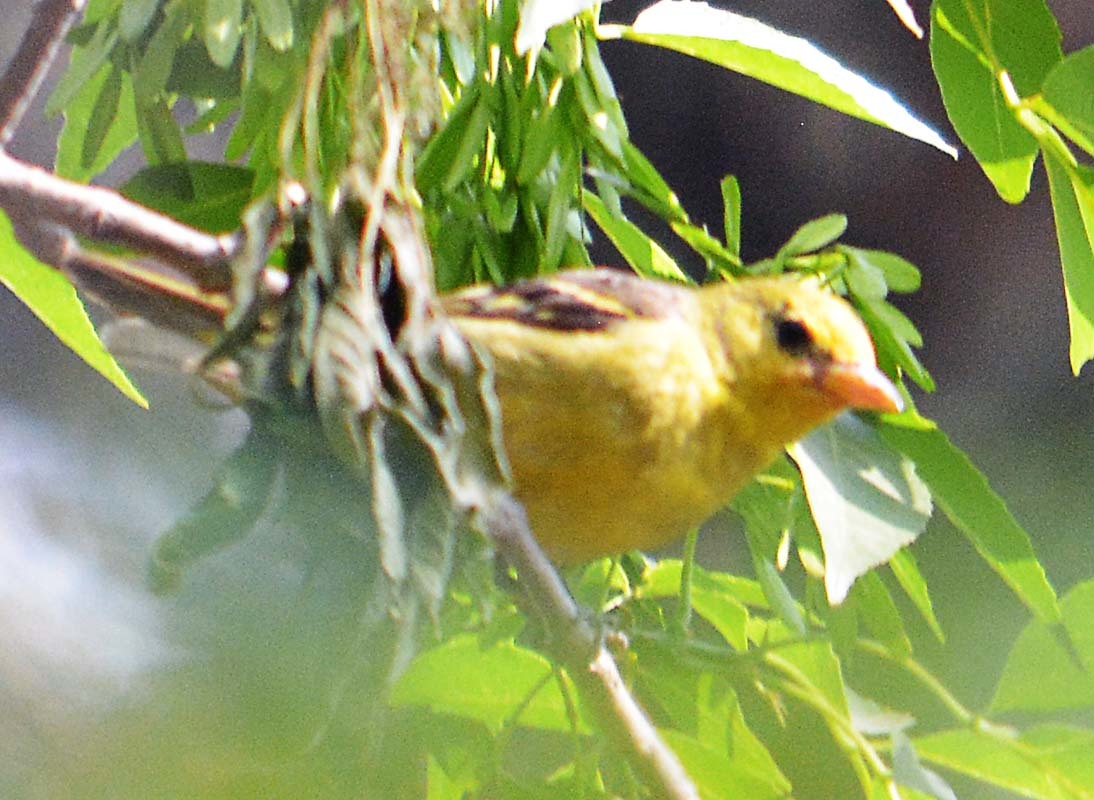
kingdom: Animalia
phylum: Chordata
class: Aves
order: Passeriformes
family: Cardinalidae
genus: Piranga
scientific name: Piranga ludoviciana
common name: Western tanager
